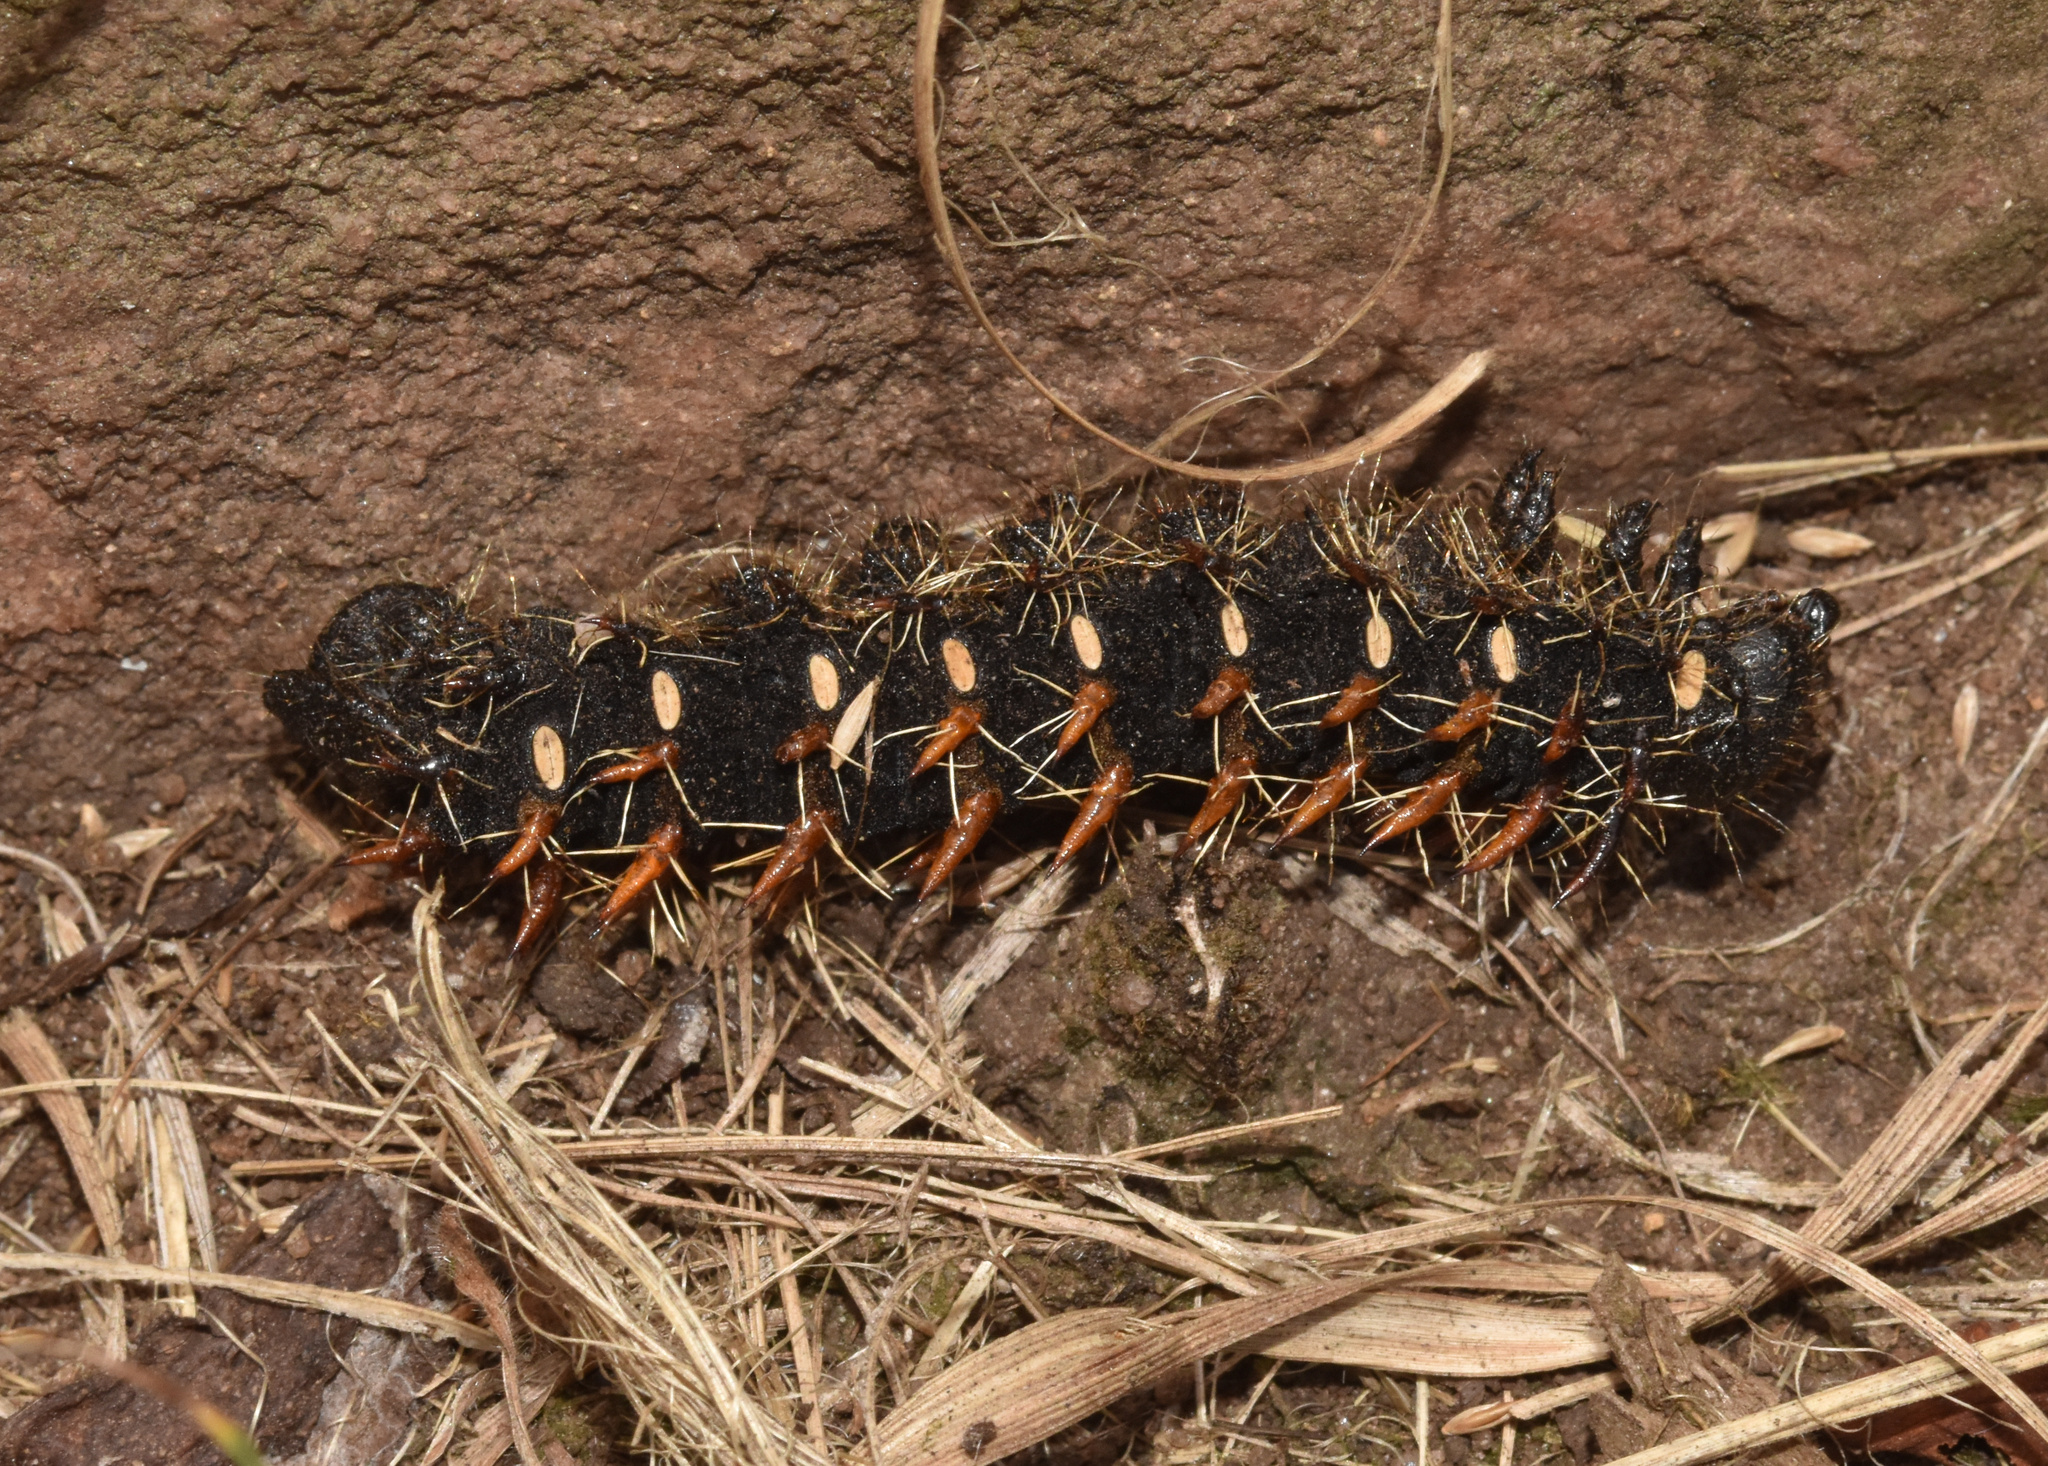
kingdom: Animalia
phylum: Arthropoda
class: Insecta
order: Lepidoptera
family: Saturniidae
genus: Nudaurelia
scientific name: Nudaurelia wahlbergi
